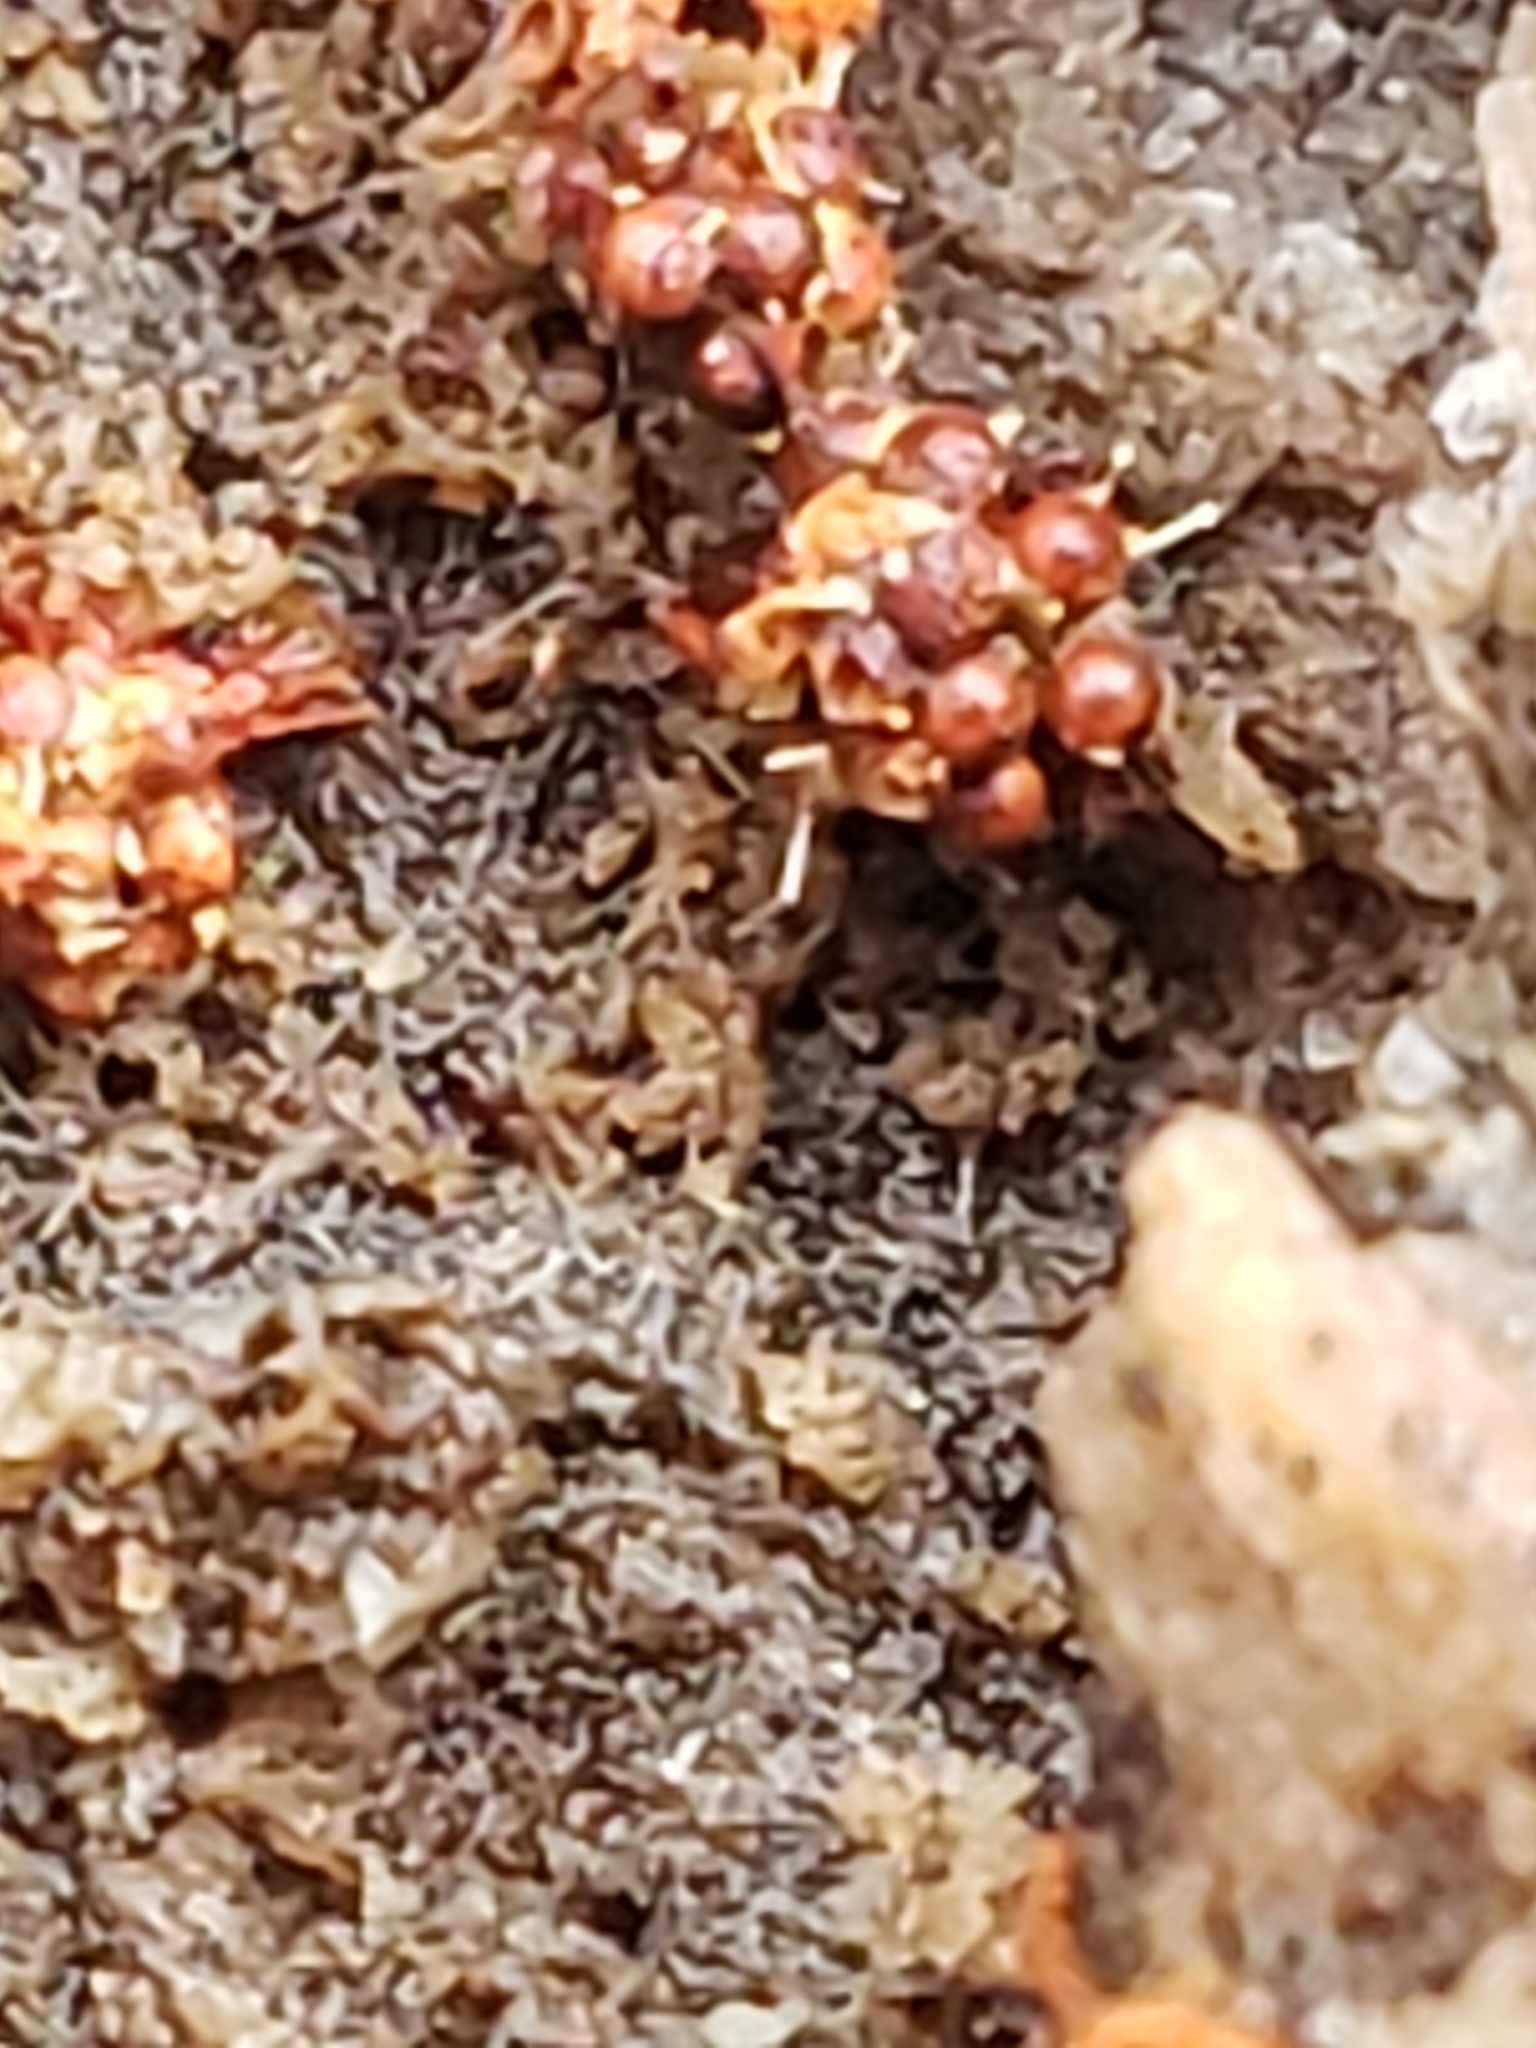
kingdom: Fungi
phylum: Ascomycota
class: Sordariomycetes
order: Hypocreales
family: Ophiocordycipitaceae
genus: Polycephalomyces
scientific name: Polycephalomyces tomentosus
